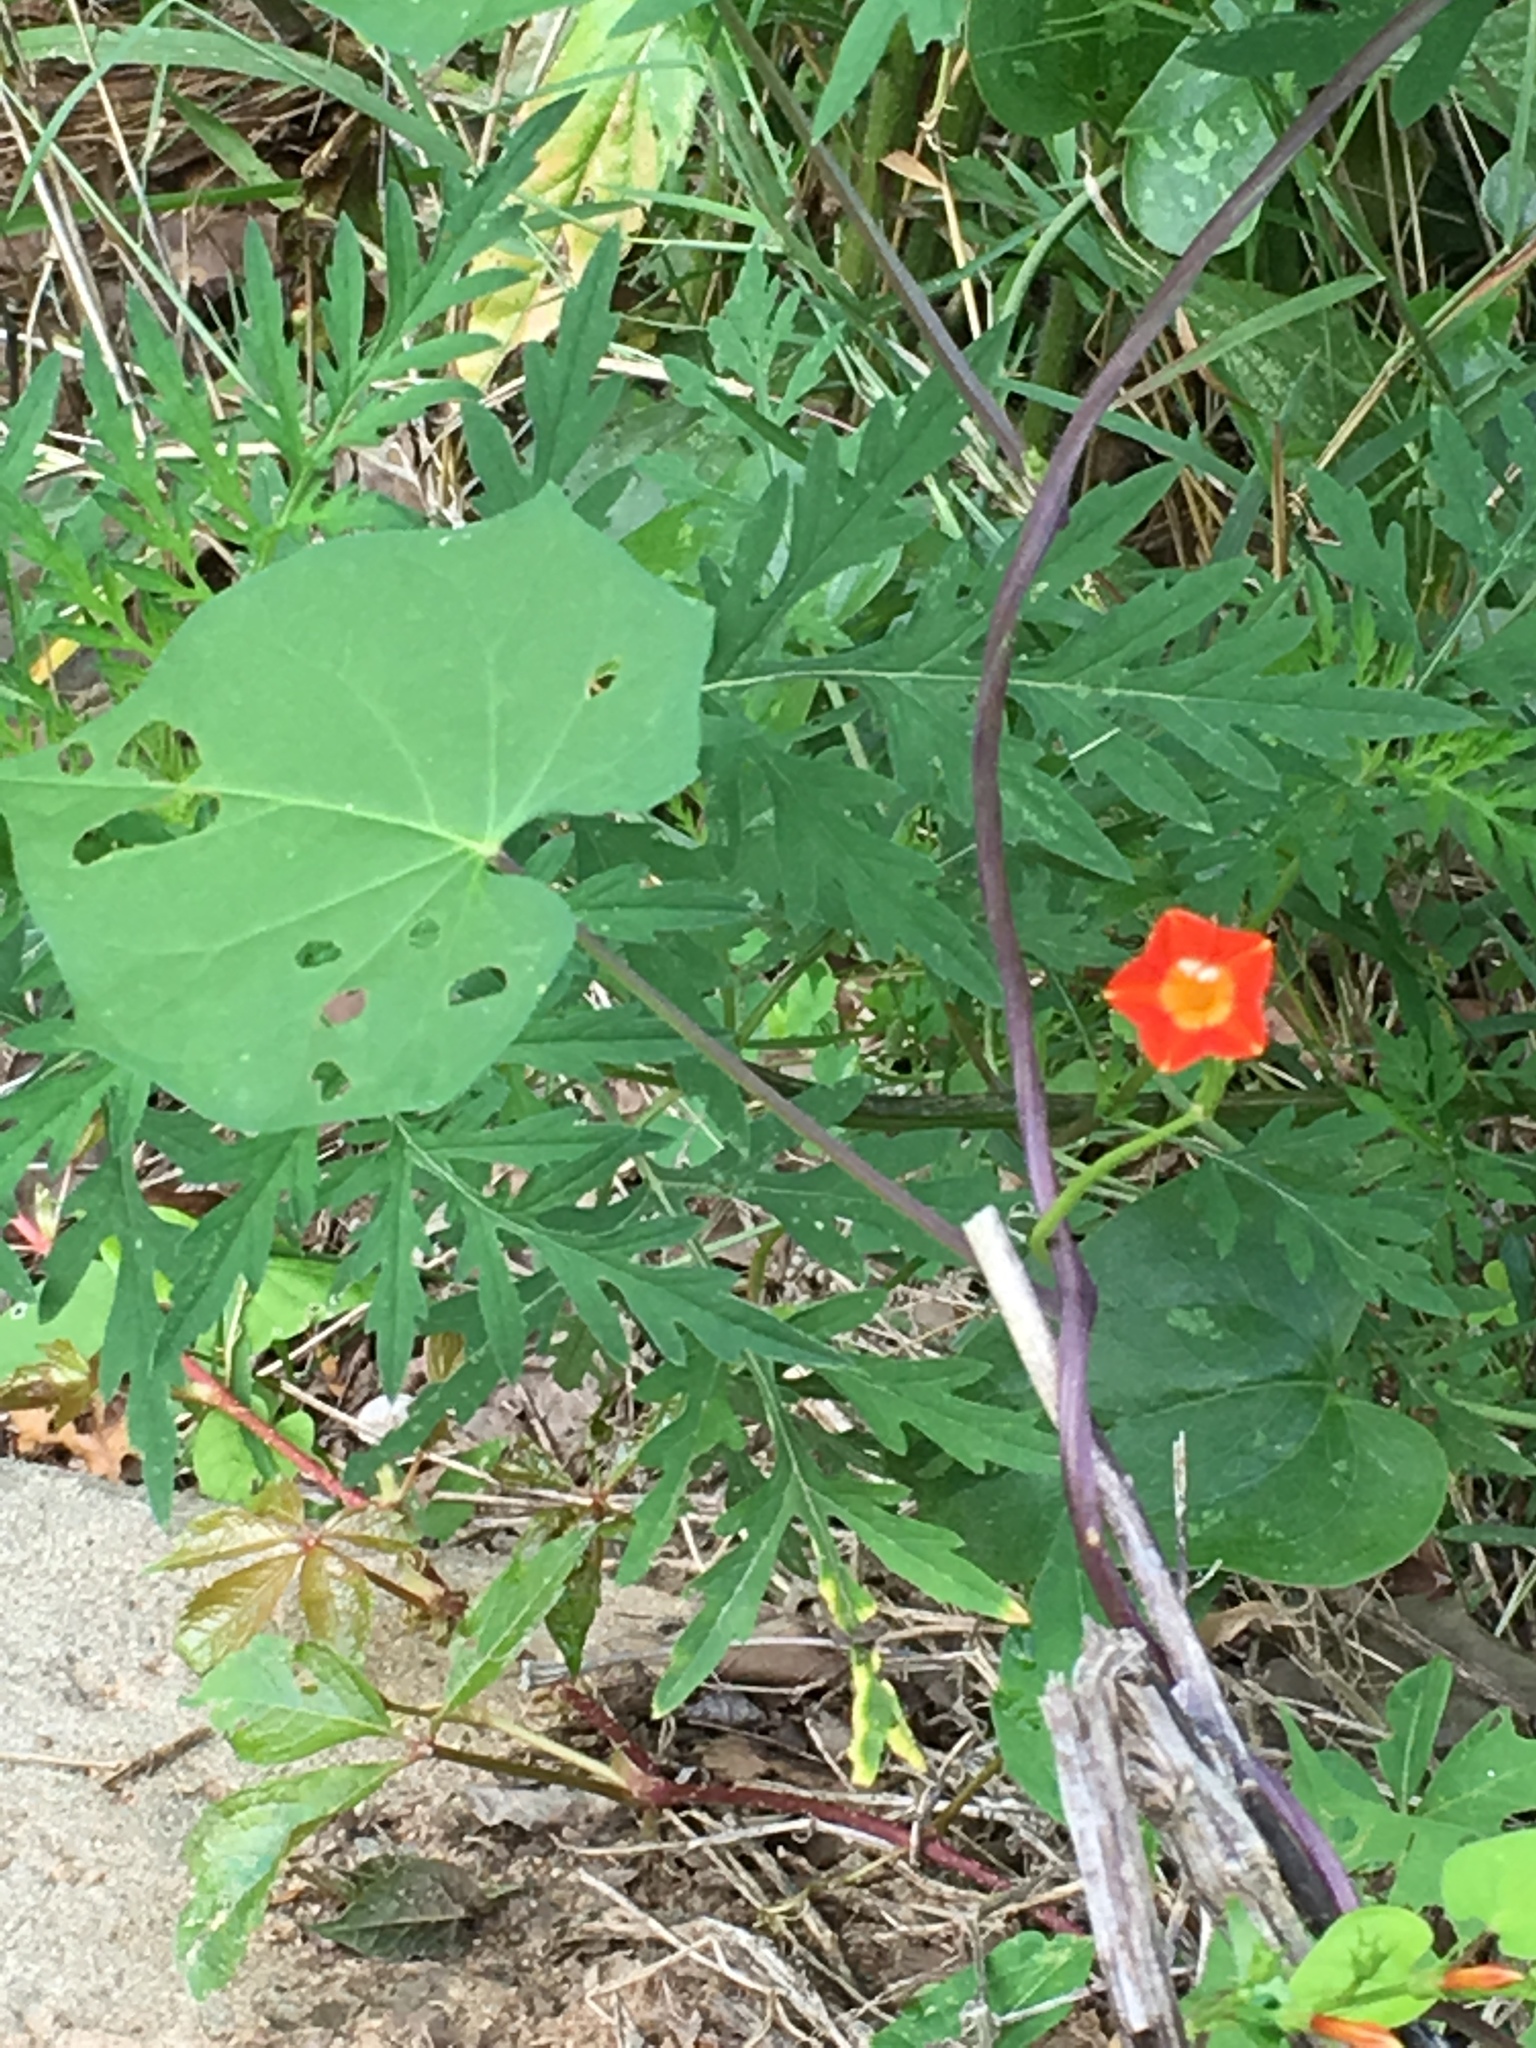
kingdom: Plantae
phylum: Tracheophyta
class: Magnoliopsida
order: Solanales
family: Convolvulaceae
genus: Ipomoea
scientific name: Ipomoea coccinea
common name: Red morning-glory
